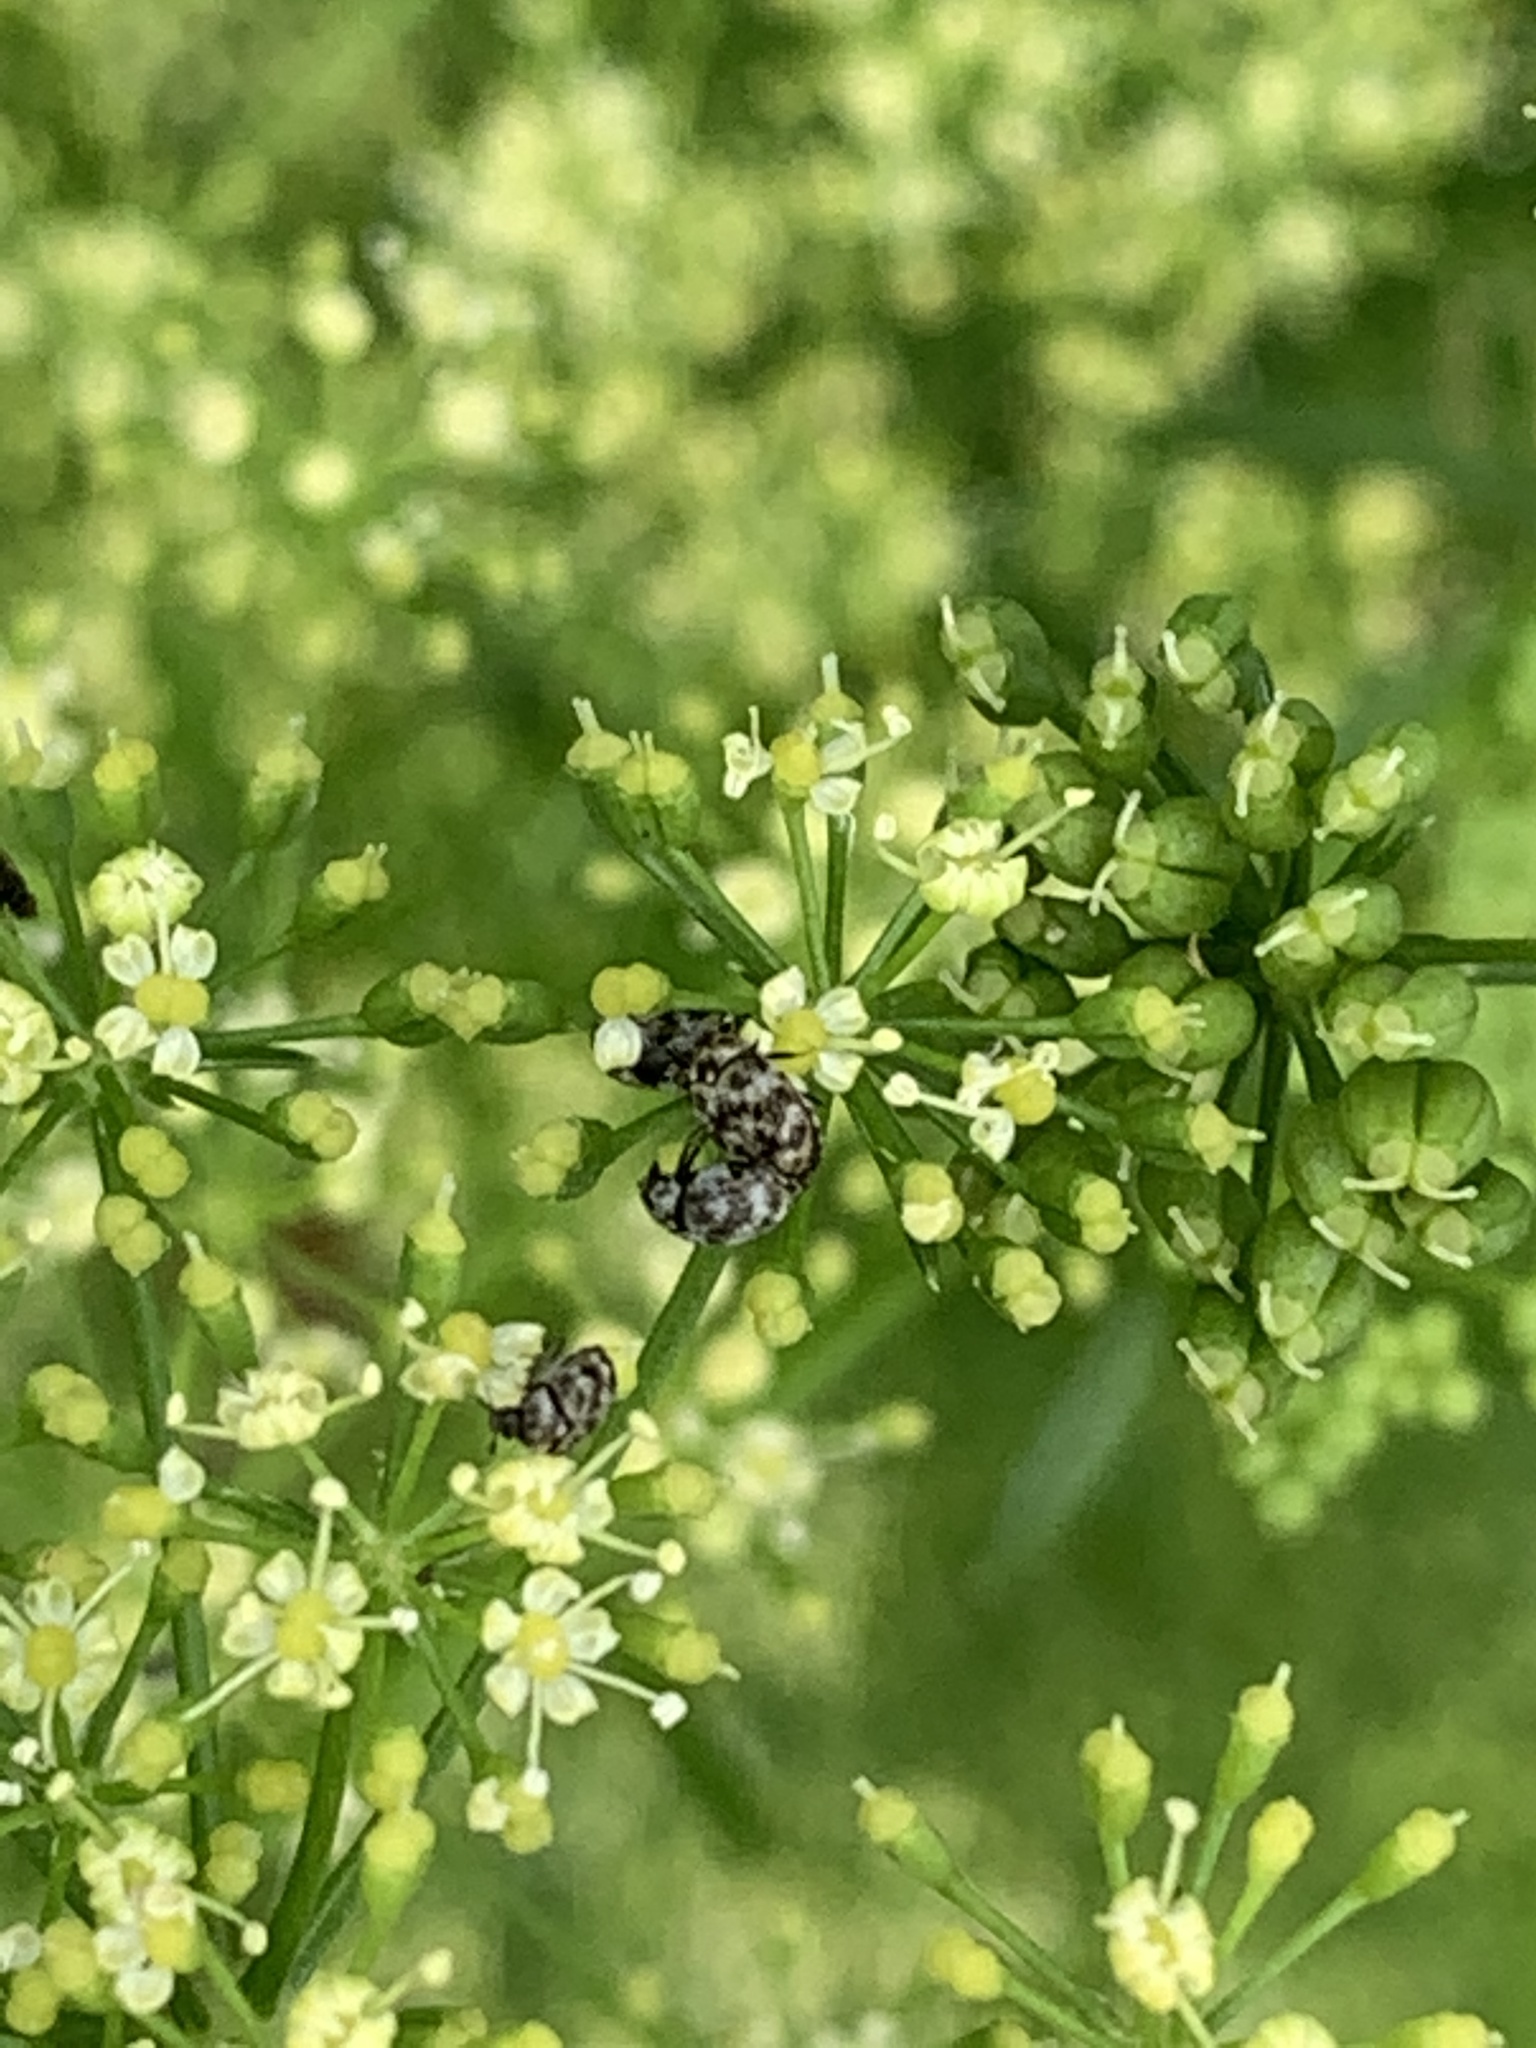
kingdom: Animalia
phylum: Arthropoda
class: Insecta
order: Coleoptera
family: Dermestidae
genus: Anthrenus
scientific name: Anthrenus verbasci
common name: Varied carpet beetle
